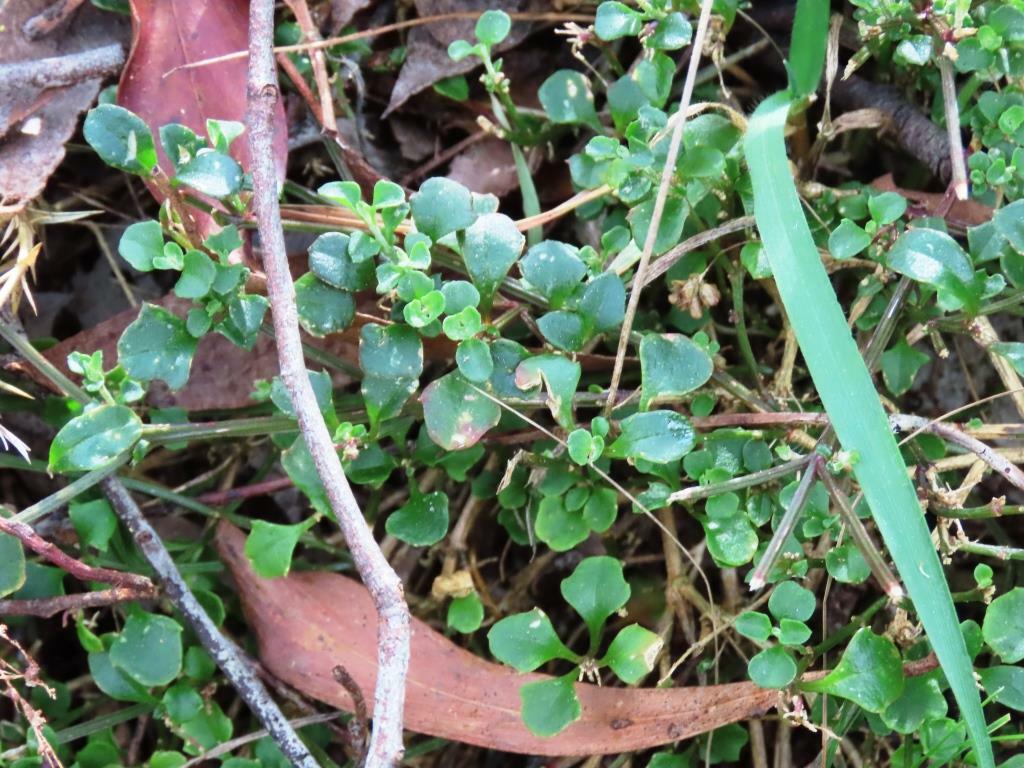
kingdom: Plantae
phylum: Tracheophyta
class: Magnoliopsida
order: Caryophyllales
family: Amaranthaceae
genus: Chenopodium
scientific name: Chenopodium robertianum
